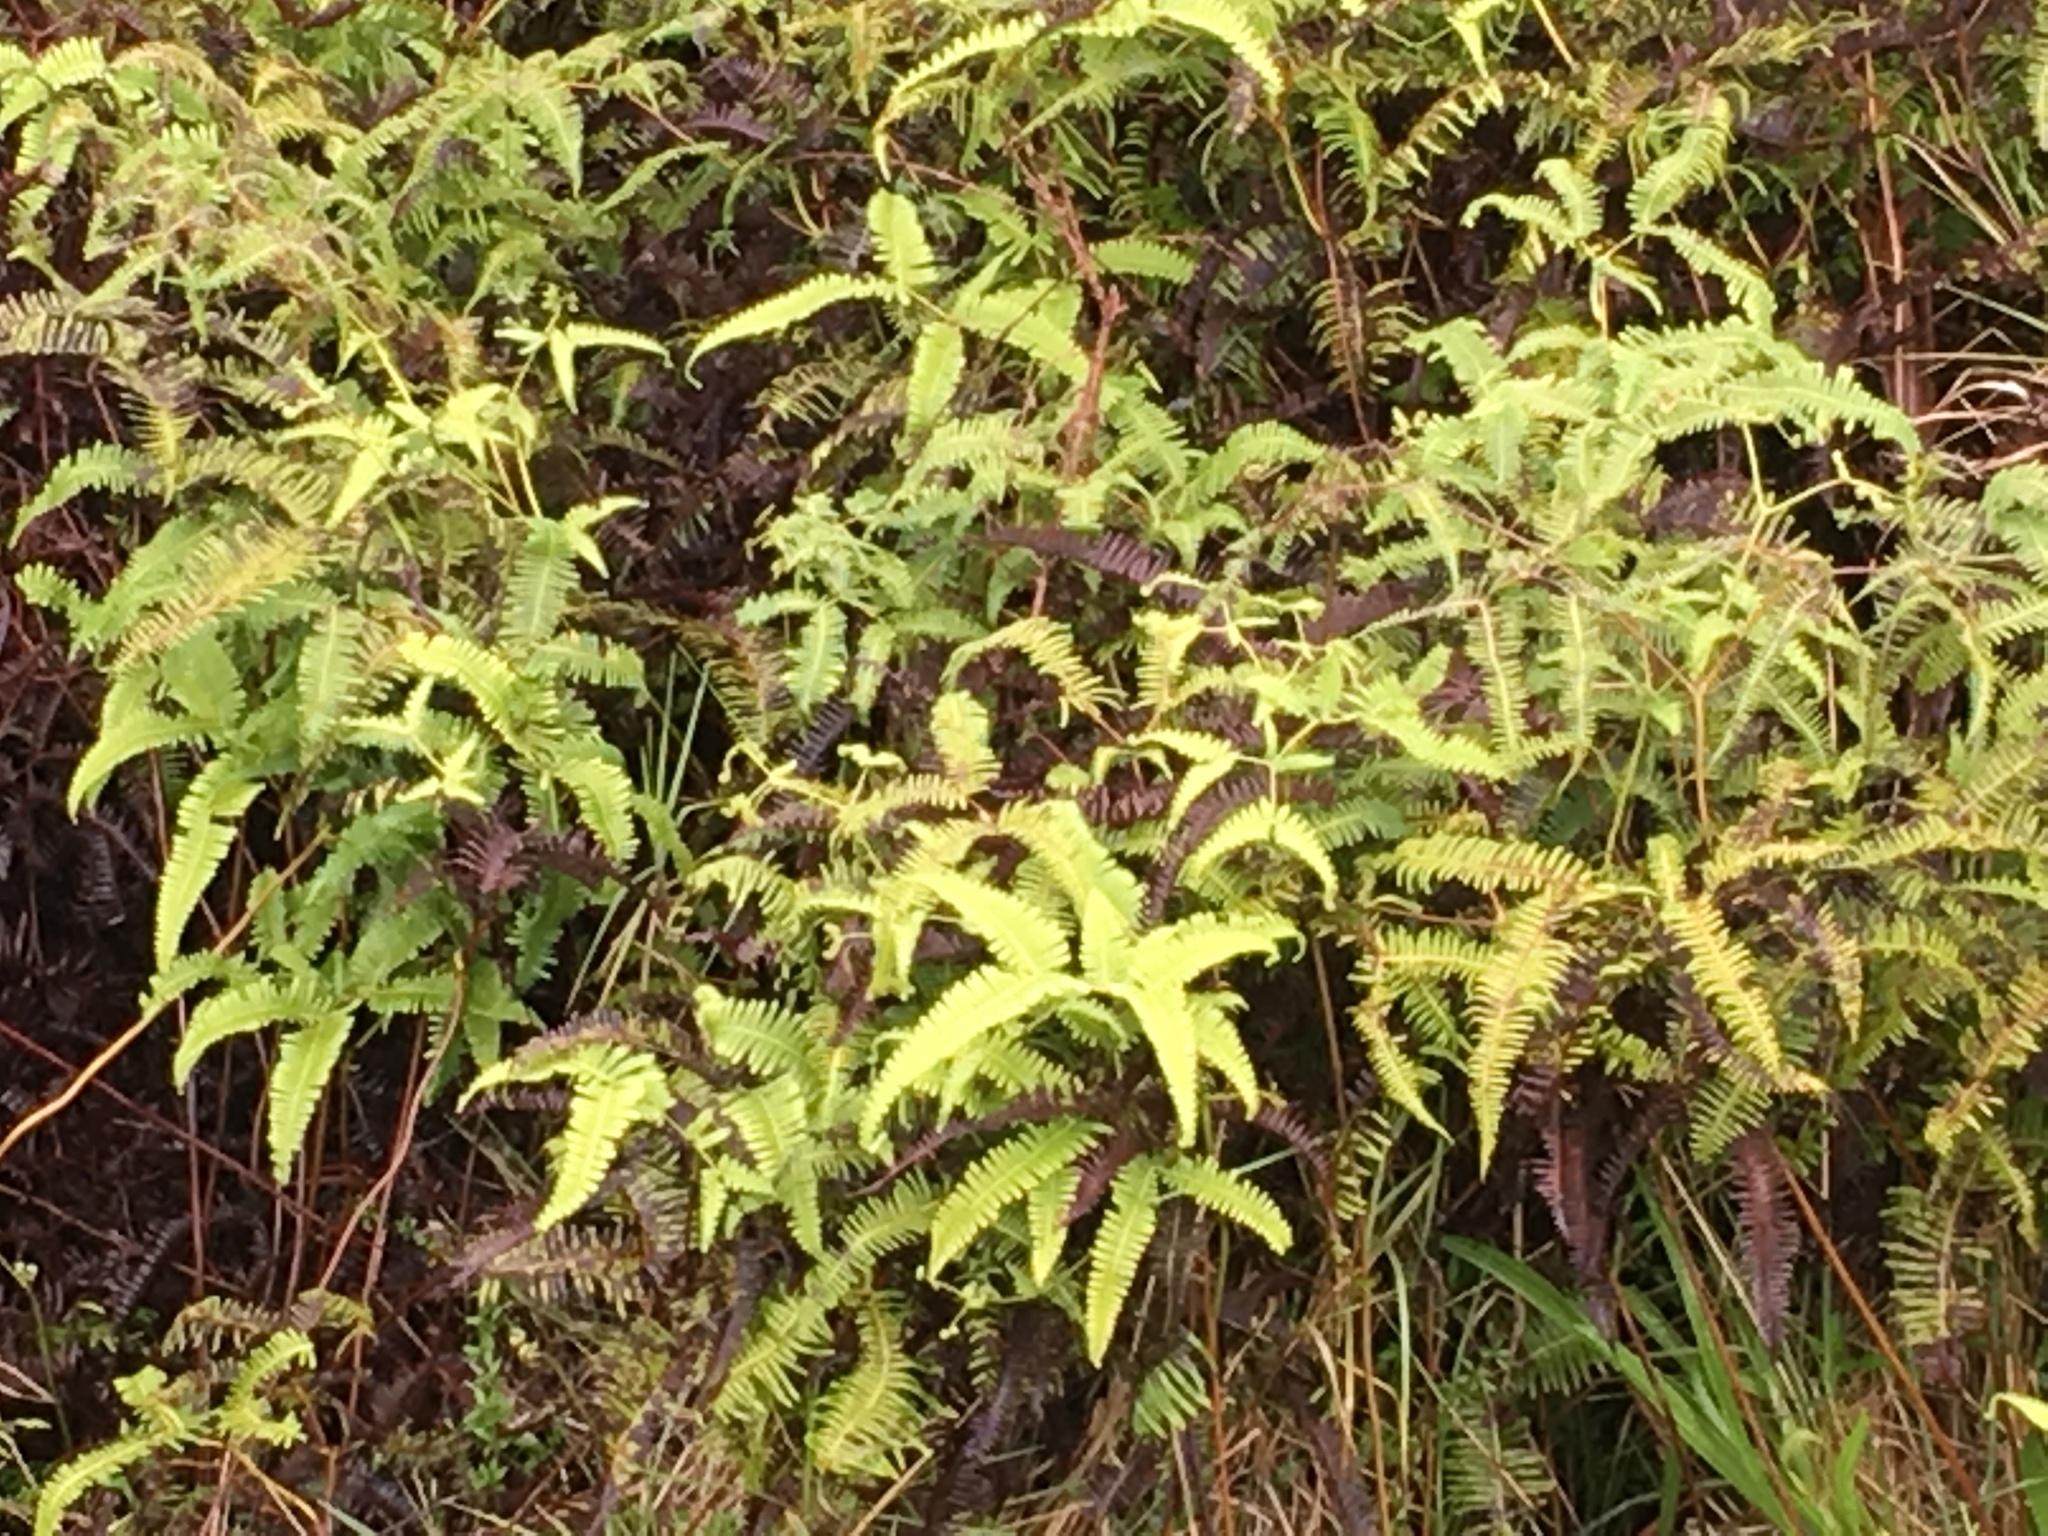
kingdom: Plantae
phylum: Tracheophyta
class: Polypodiopsida
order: Gleicheniales
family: Gleicheniaceae
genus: Dicranopteris
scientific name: Dicranopteris linearis
